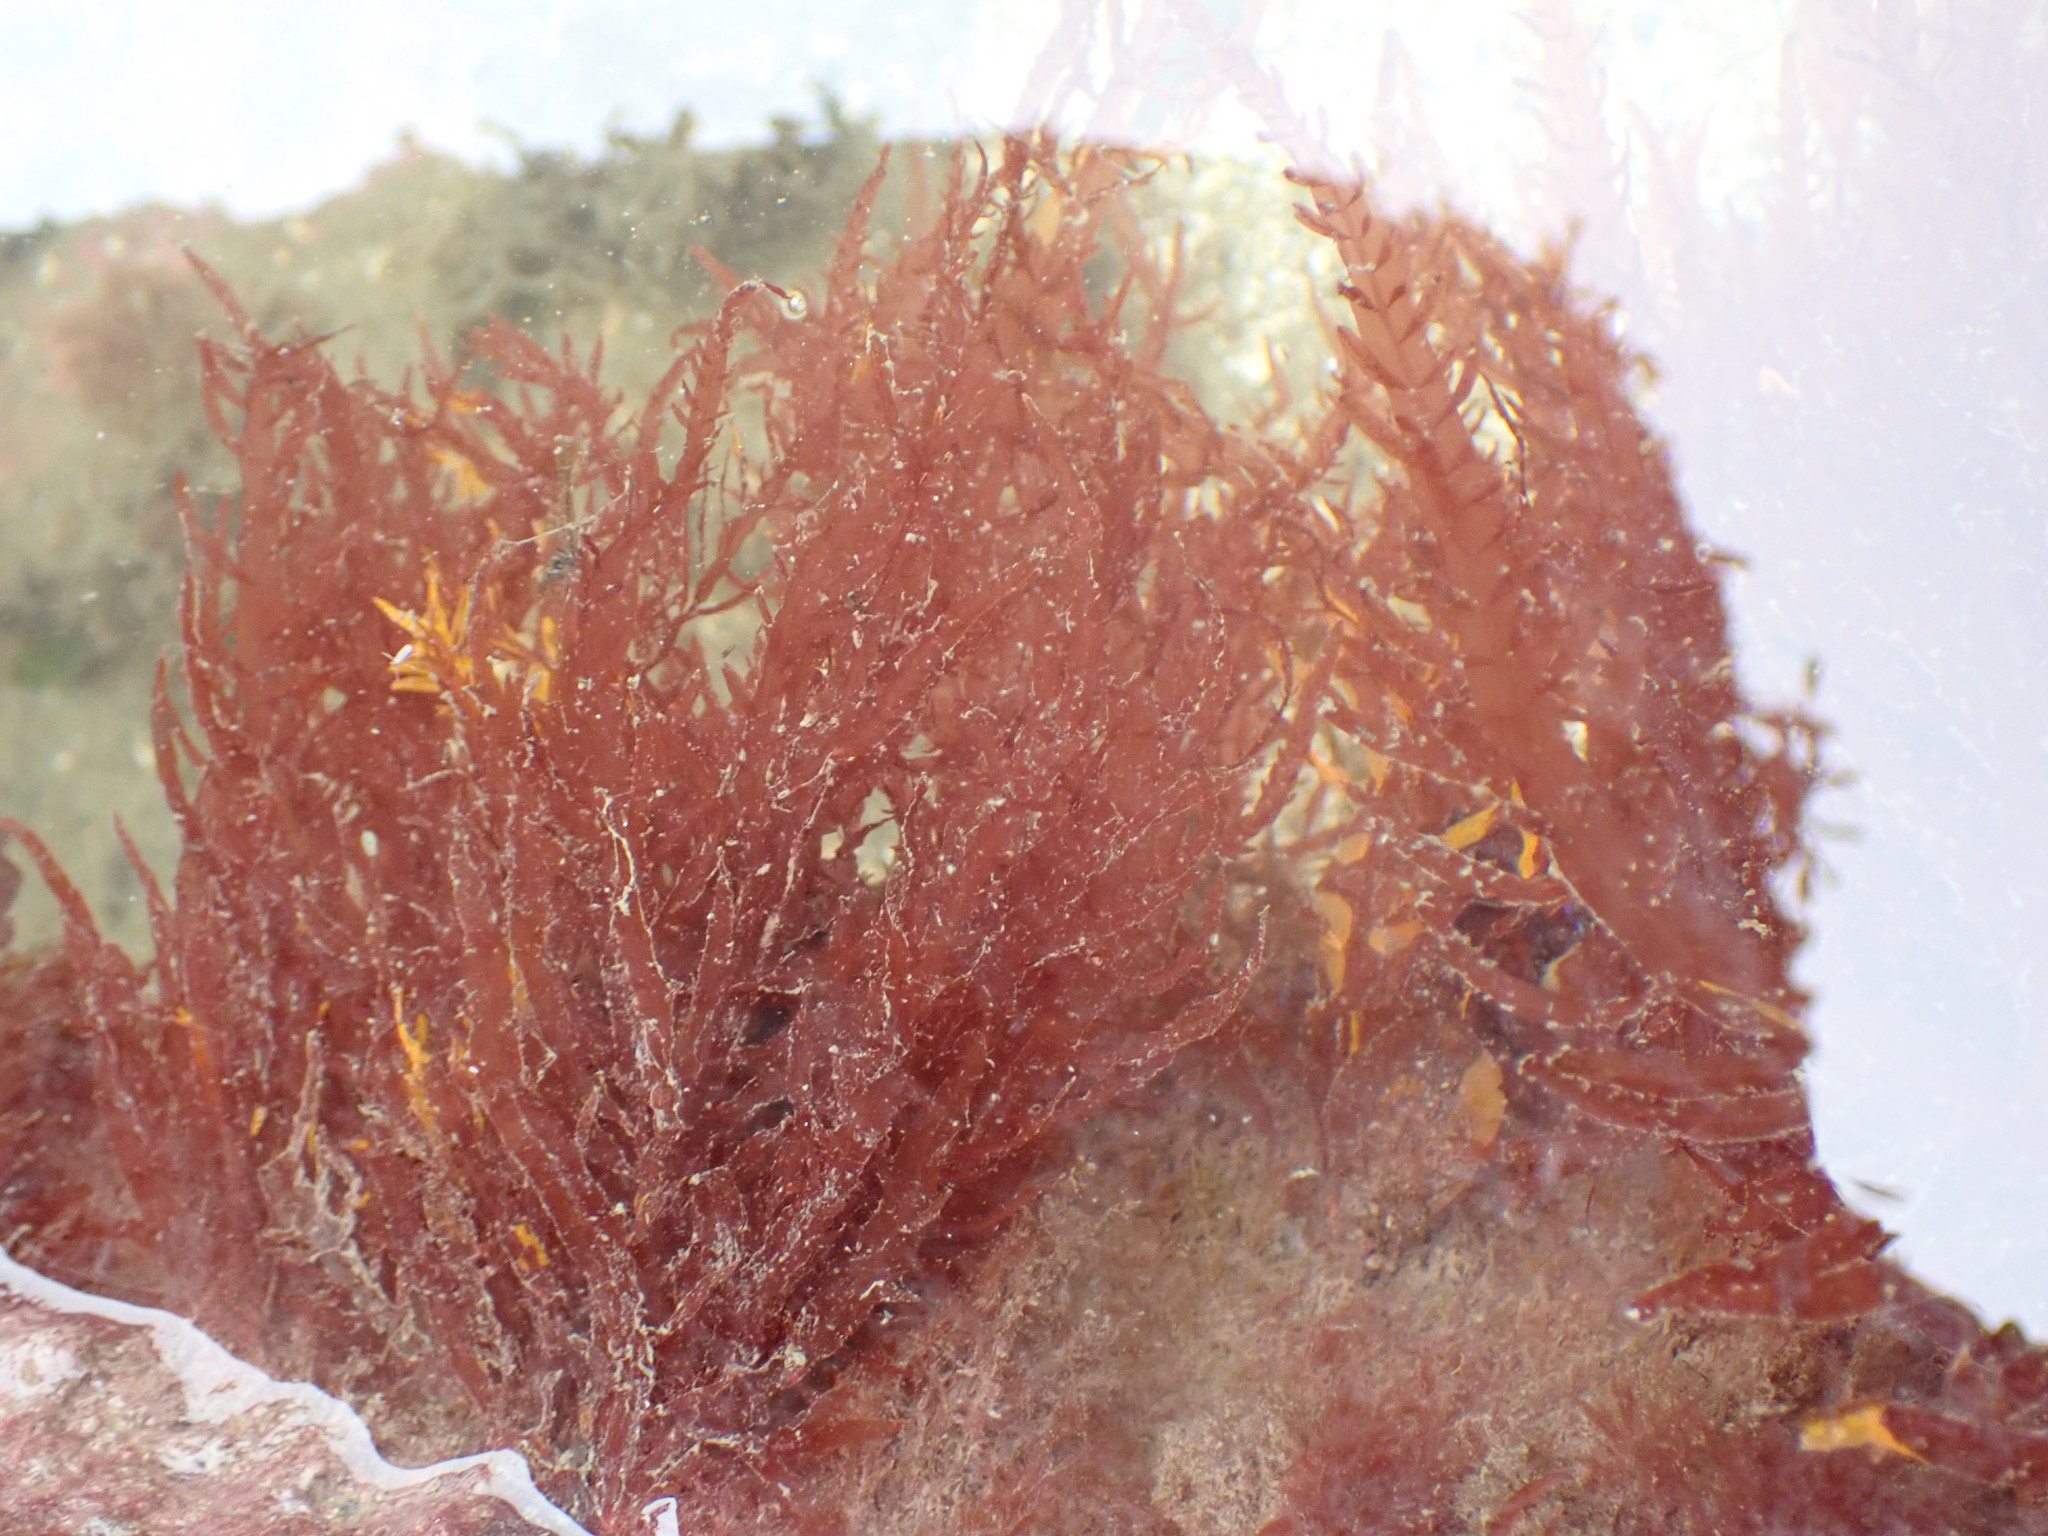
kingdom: Plantae
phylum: Rhodophyta
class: Florideophyceae
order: Ceramiales
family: Delesseriaceae
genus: Cumathamnion
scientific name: Cumathamnion decipiens
